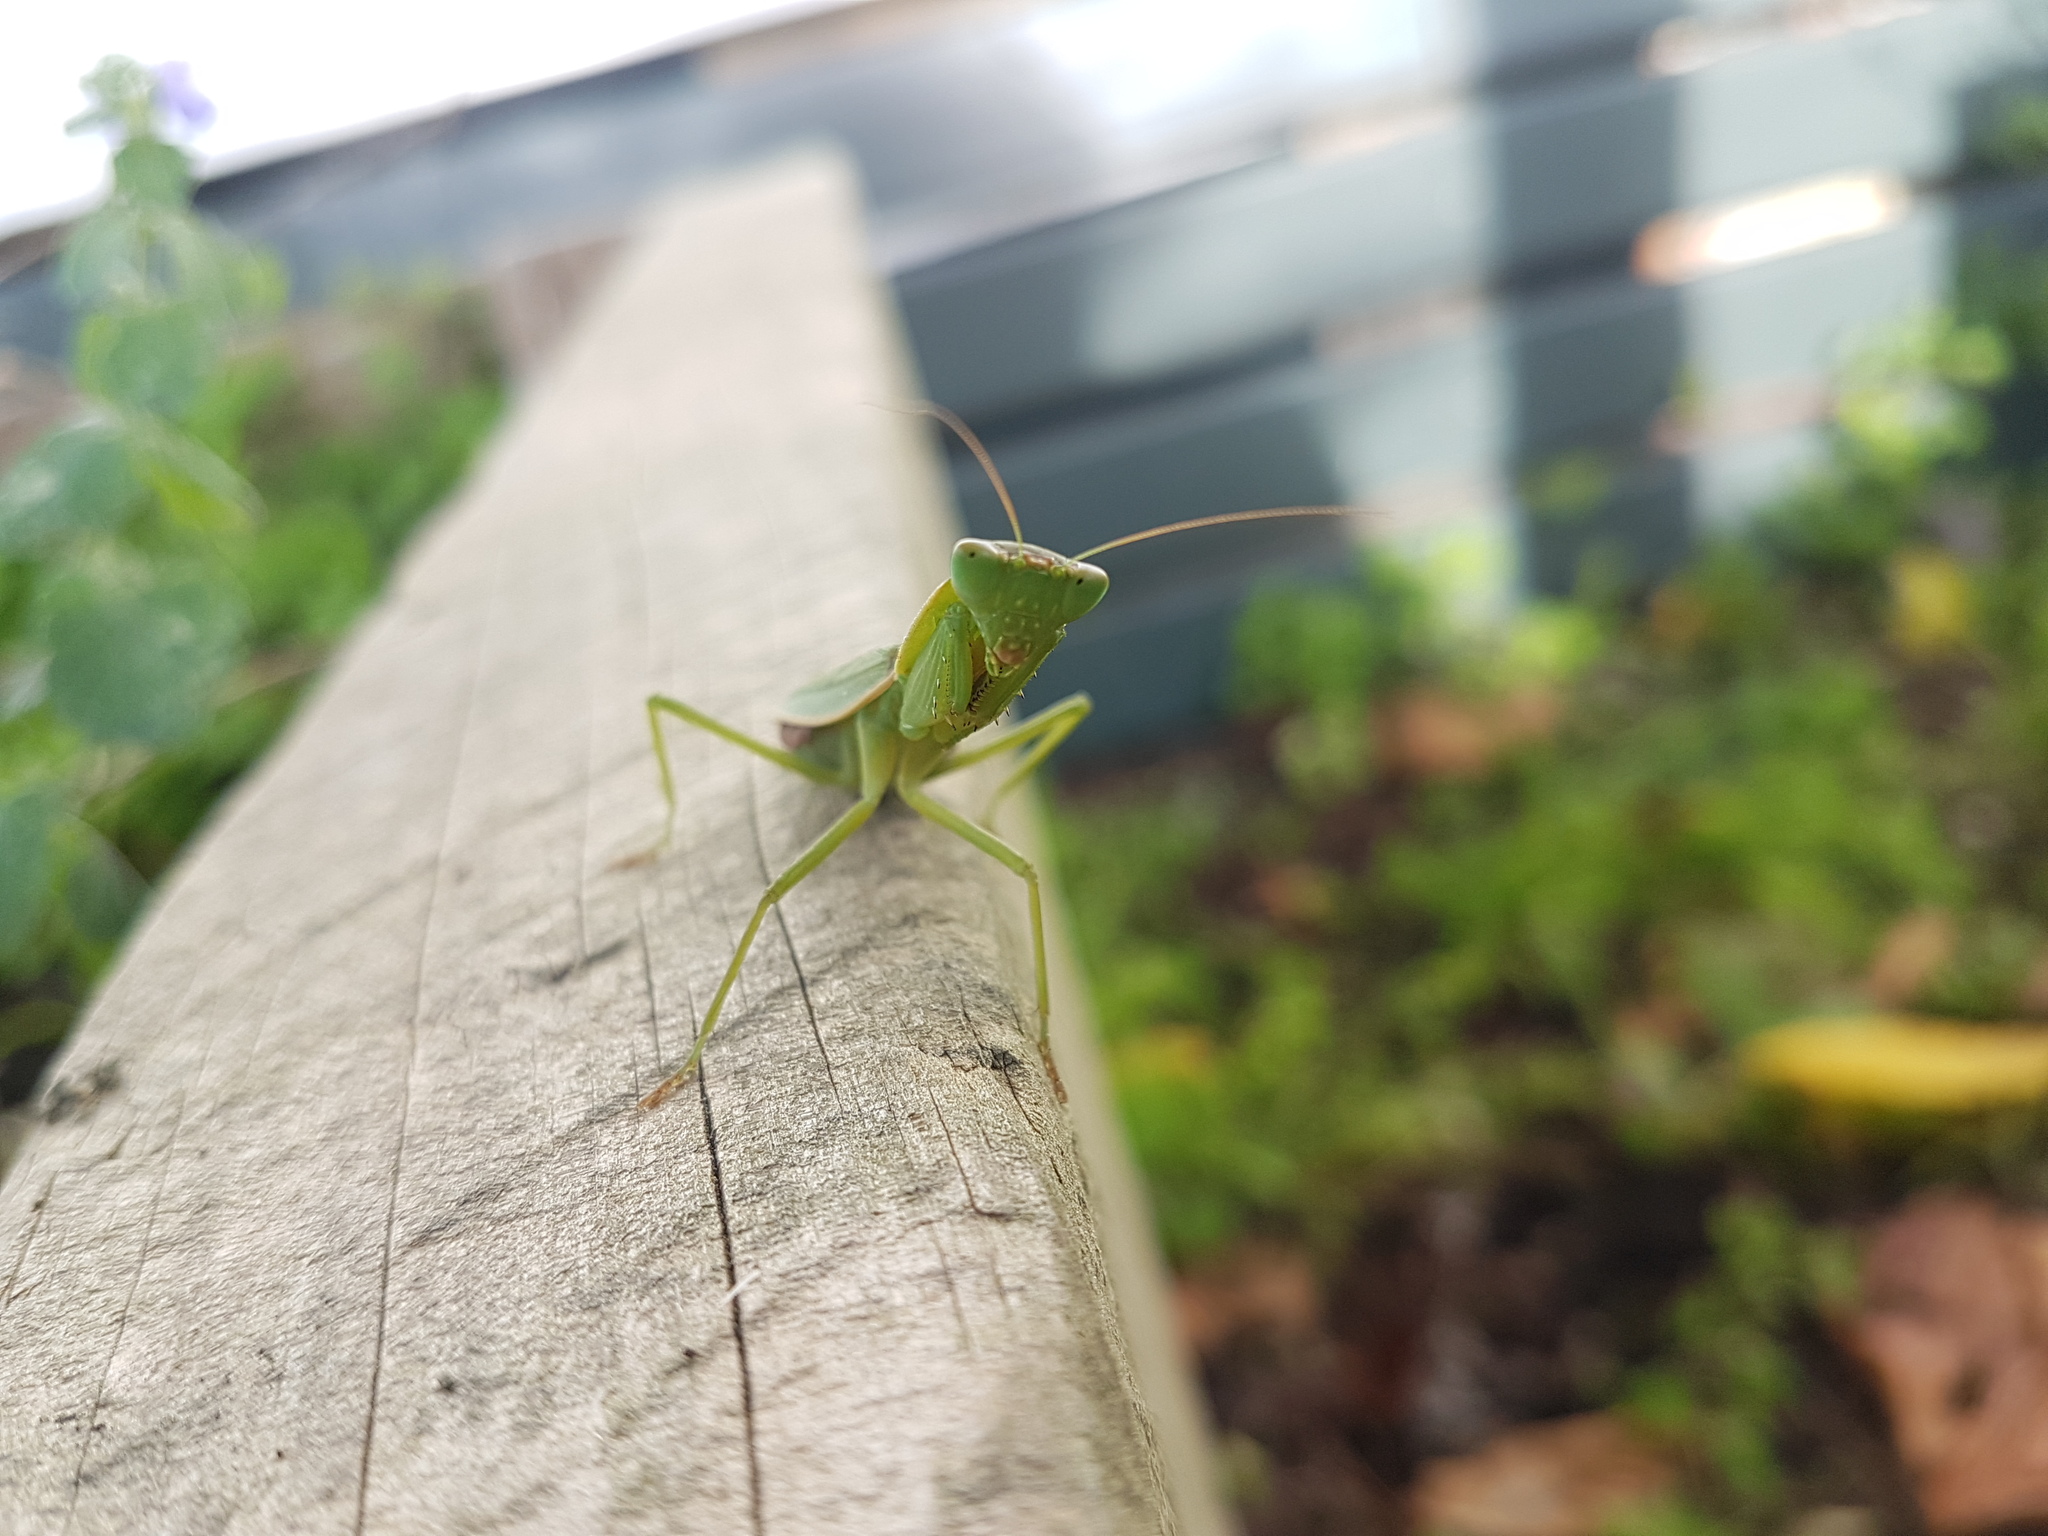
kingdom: Animalia
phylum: Arthropoda
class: Insecta
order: Mantodea
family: Mantidae
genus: Orthodera
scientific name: Orthodera novaezealandiae
